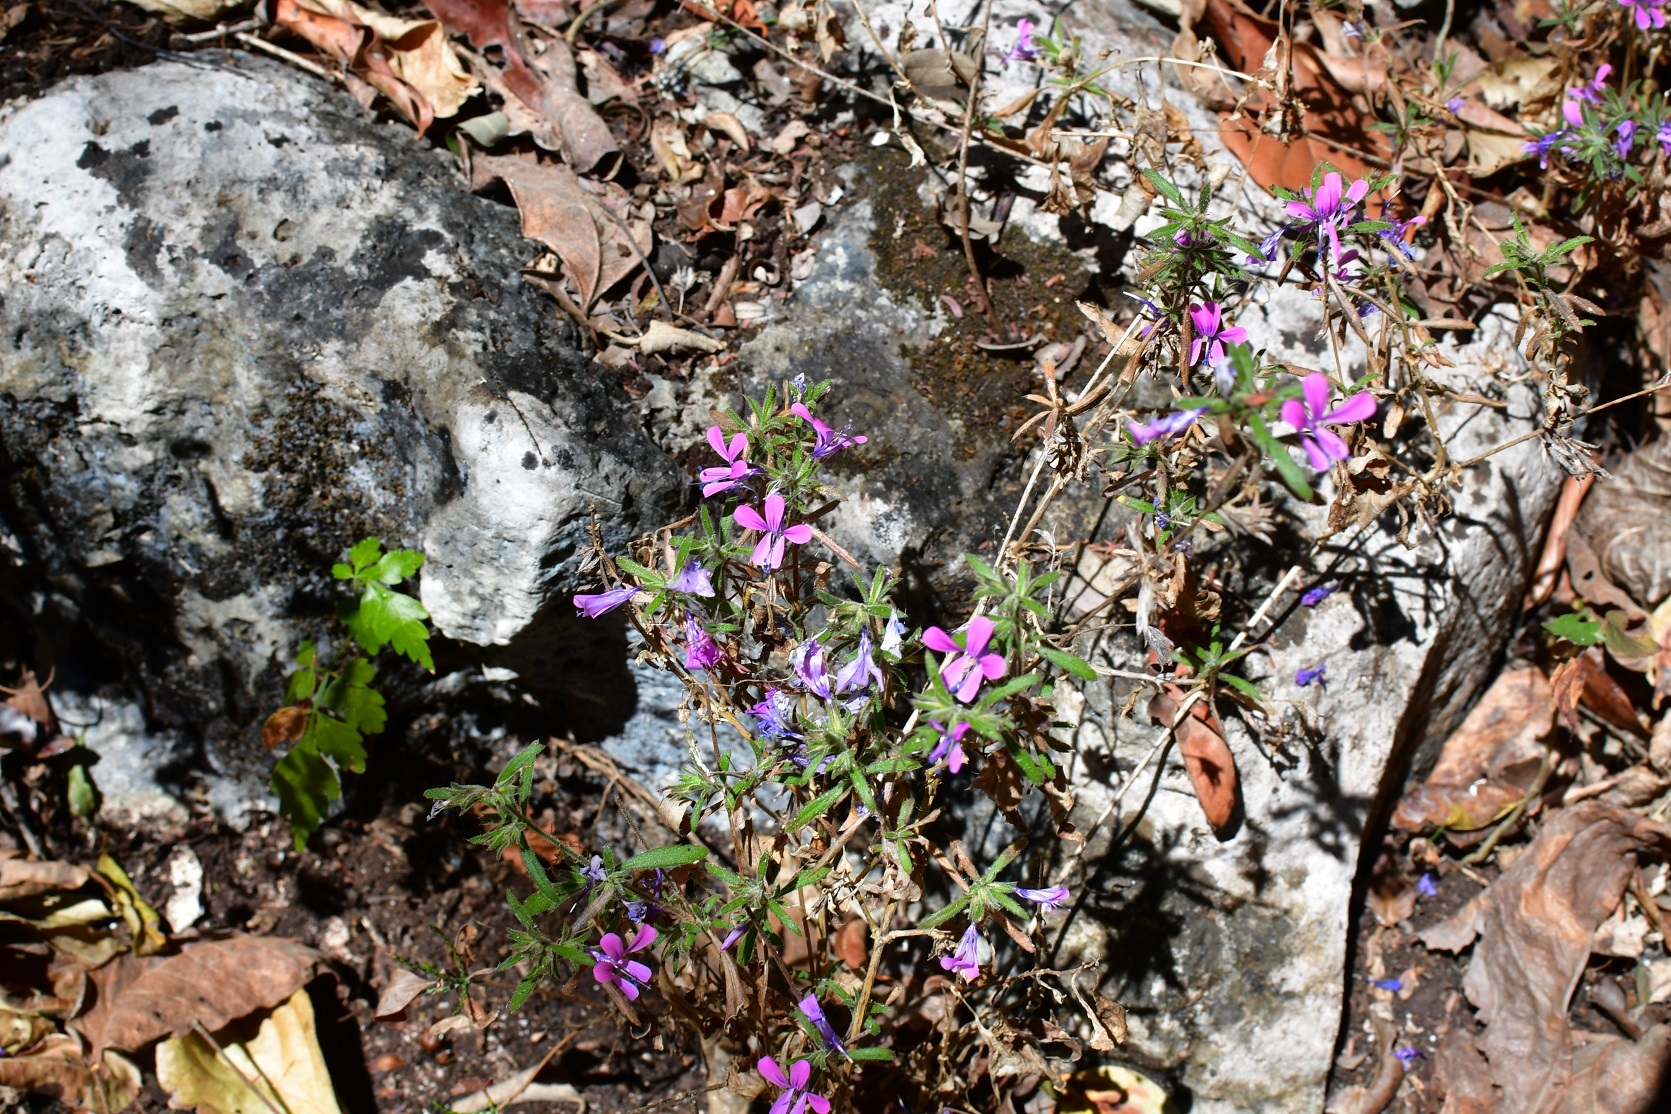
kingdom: Plantae
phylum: Tracheophyta
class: Magnoliopsida
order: Ericales
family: Polemoniaceae
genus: Loeselia
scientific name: Loeselia glandulosa
